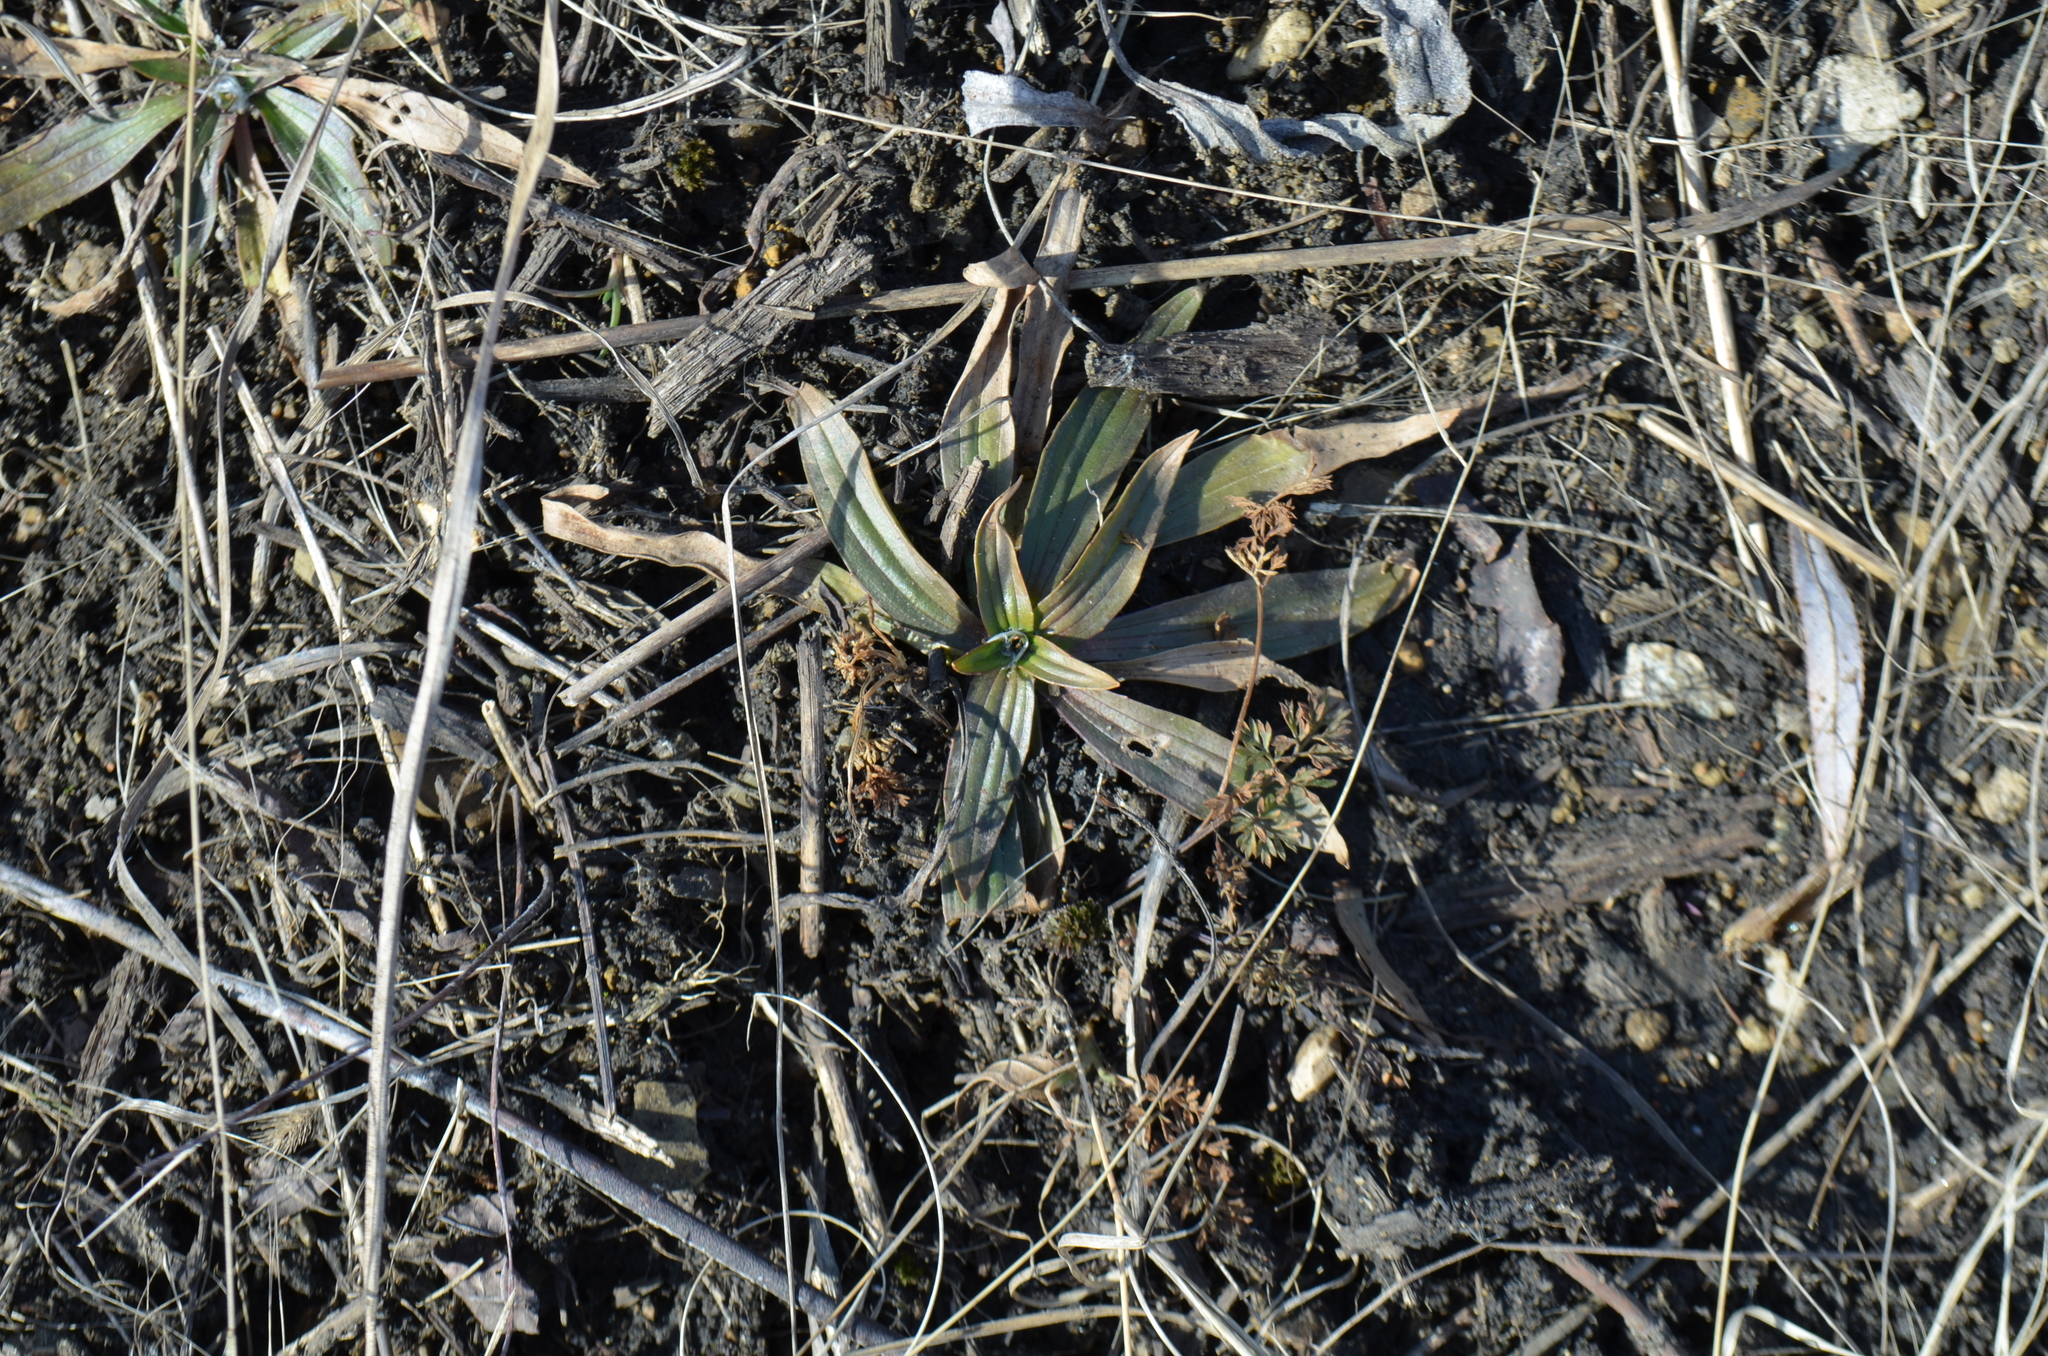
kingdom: Plantae
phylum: Tracheophyta
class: Magnoliopsida
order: Lamiales
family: Plantaginaceae
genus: Plantago
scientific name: Plantago lanceolata
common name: Ribwort plantain
